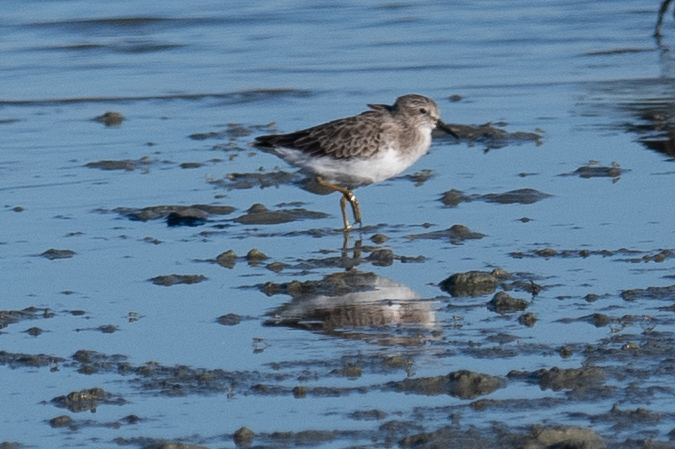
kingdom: Animalia
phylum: Chordata
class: Aves
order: Charadriiformes
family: Scolopacidae
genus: Calidris
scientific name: Calidris minutilla
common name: Least sandpiper
